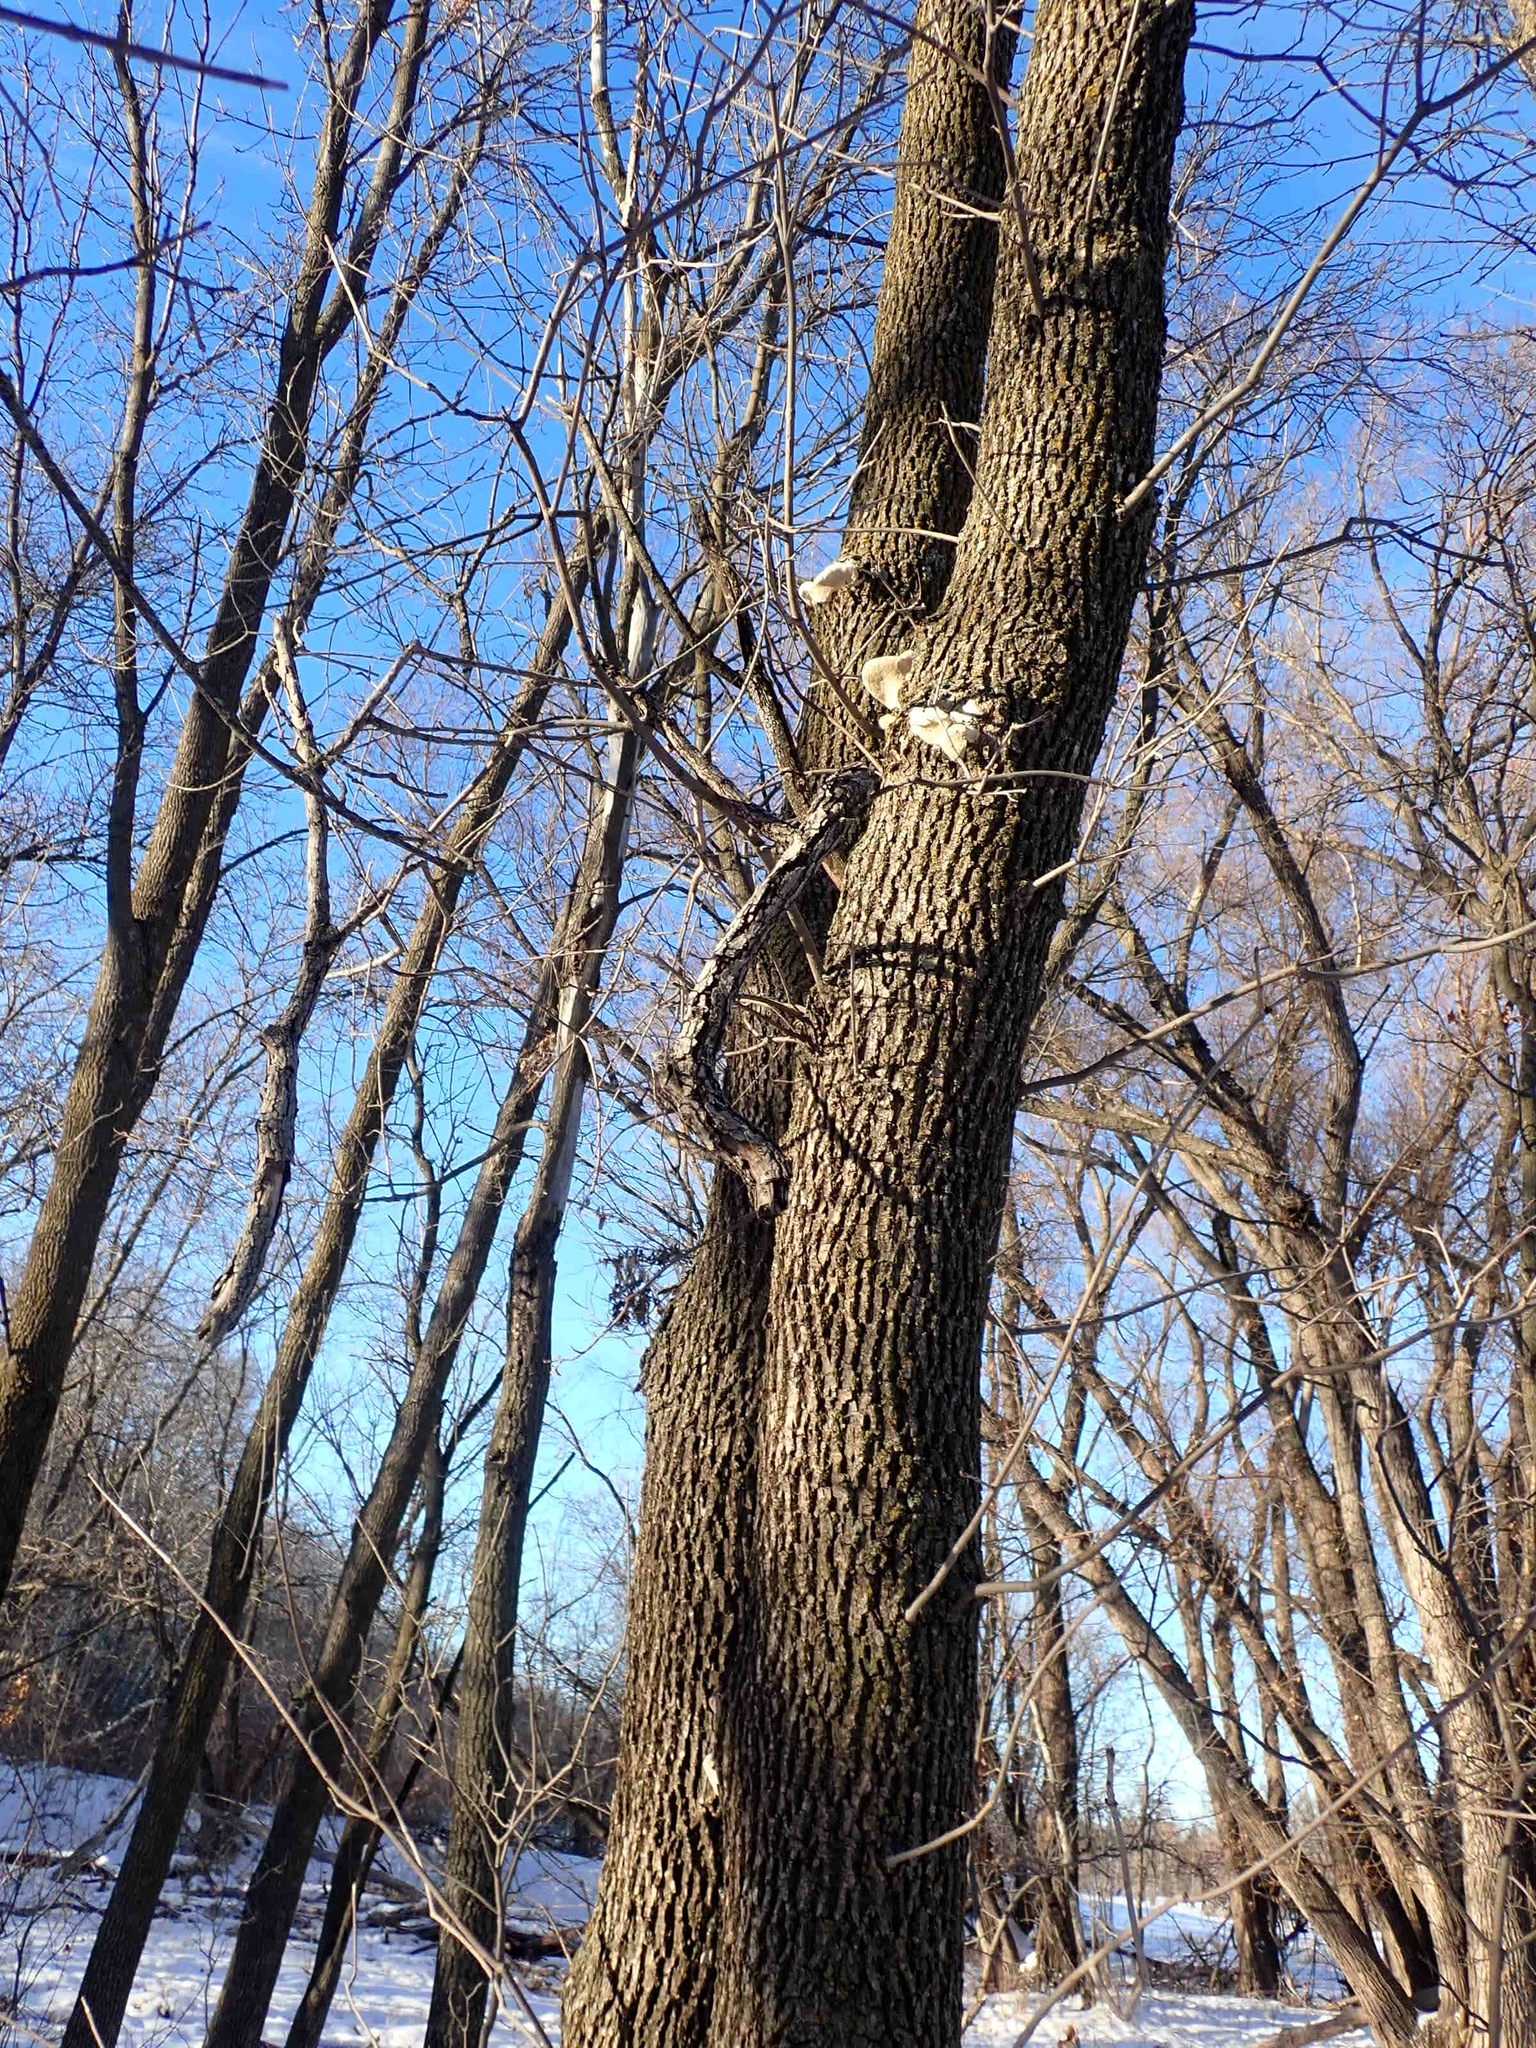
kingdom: Plantae
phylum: Tracheophyta
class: Magnoliopsida
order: Lamiales
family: Oleaceae
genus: Fraxinus
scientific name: Fraxinus pennsylvanica
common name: Green ash
